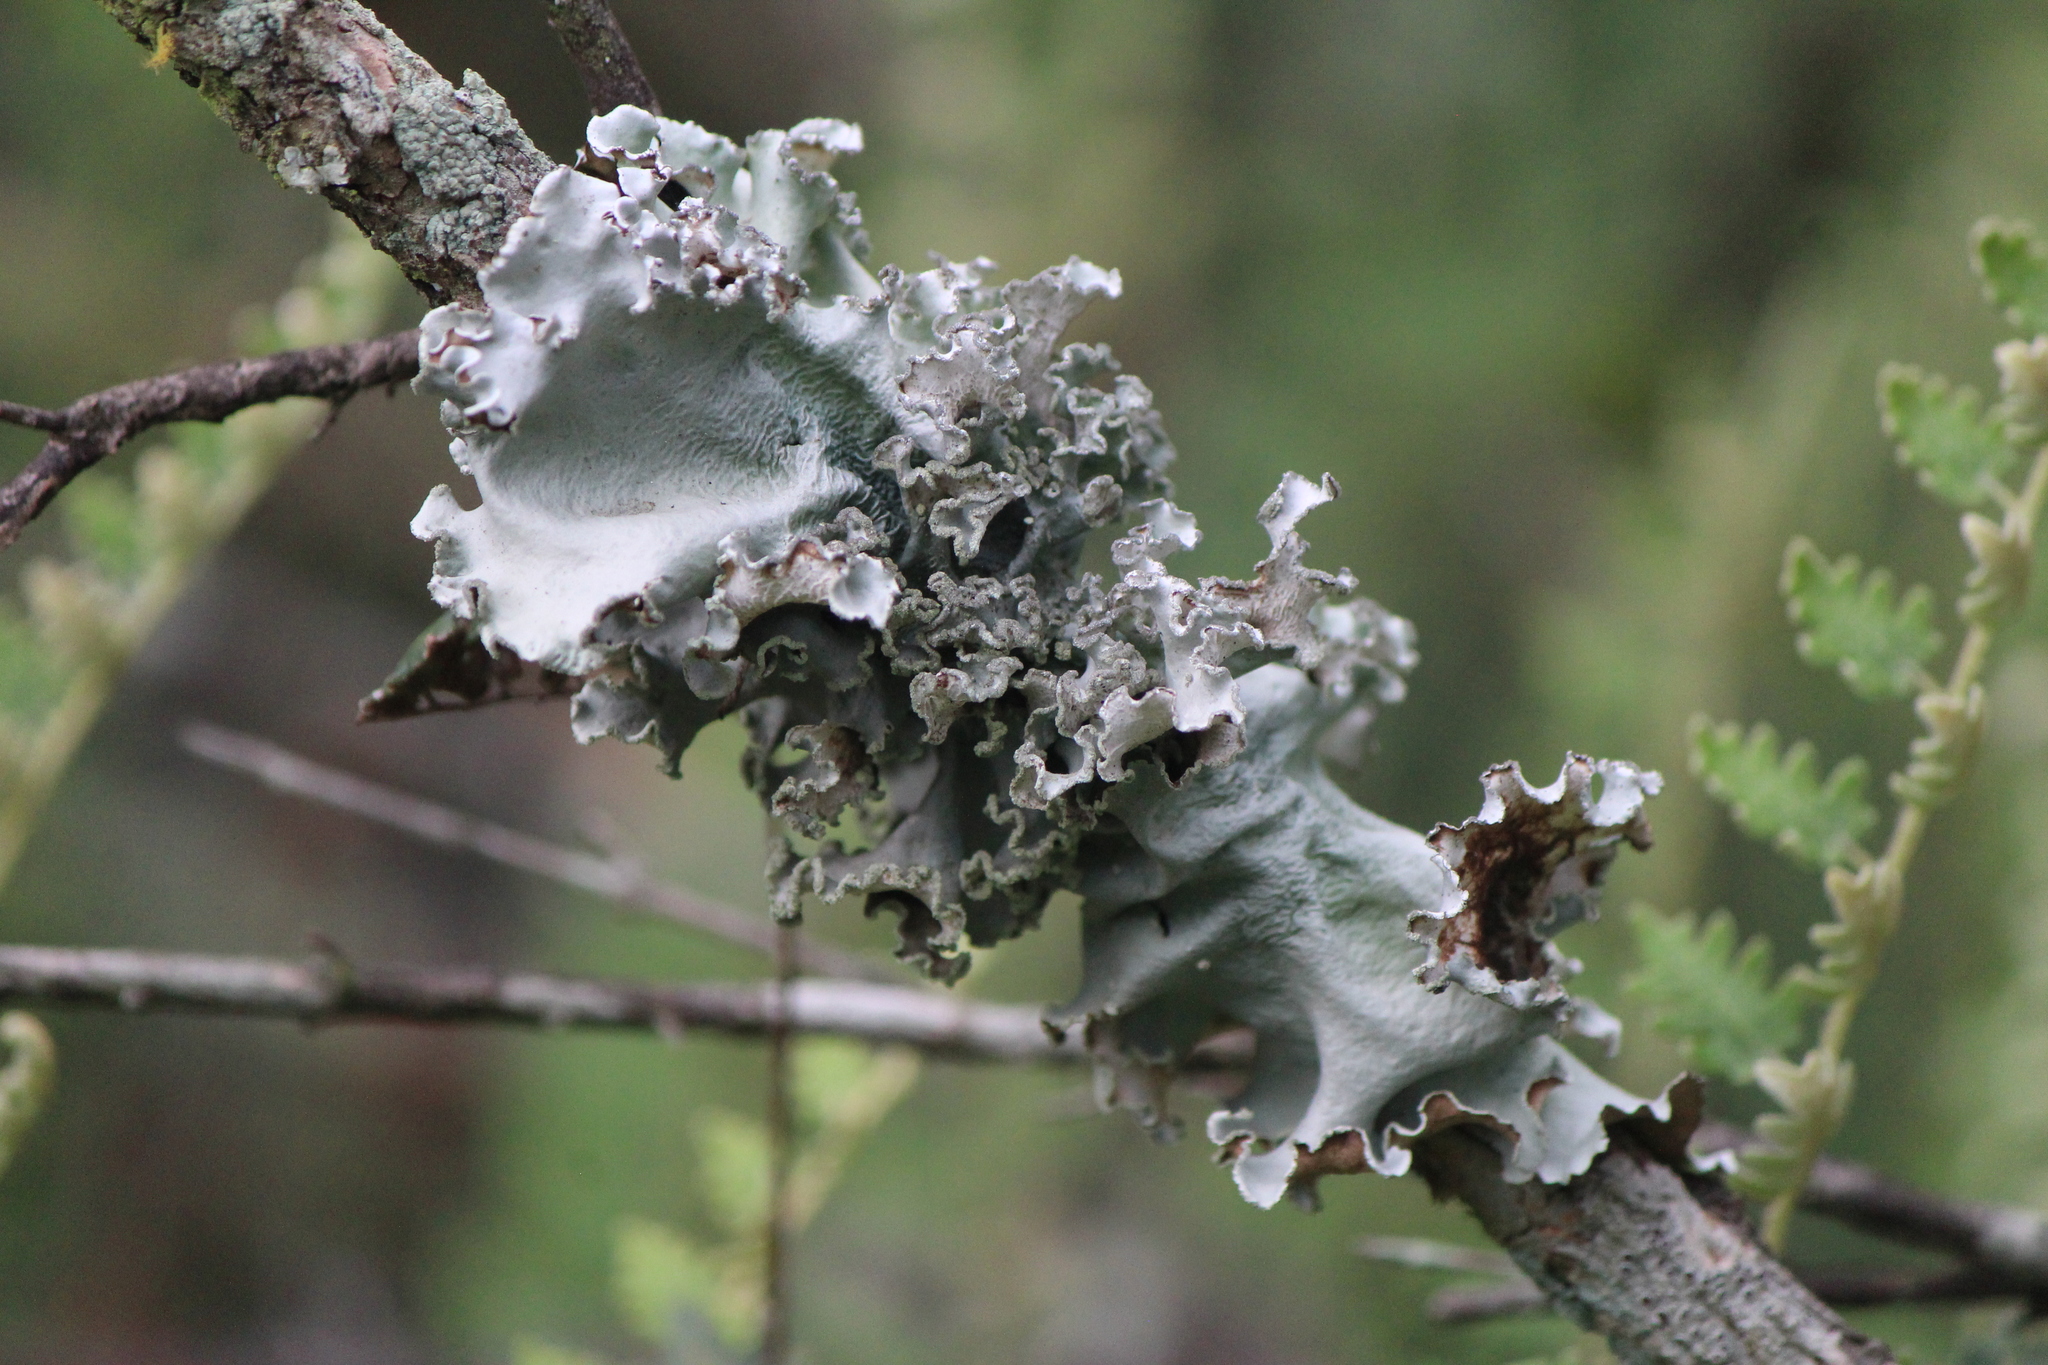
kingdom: Fungi
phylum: Ascomycota
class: Lecanoromycetes
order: Lecanorales
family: Parmeliaceae
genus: Parmotrema
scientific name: Parmotrema austrosinense
